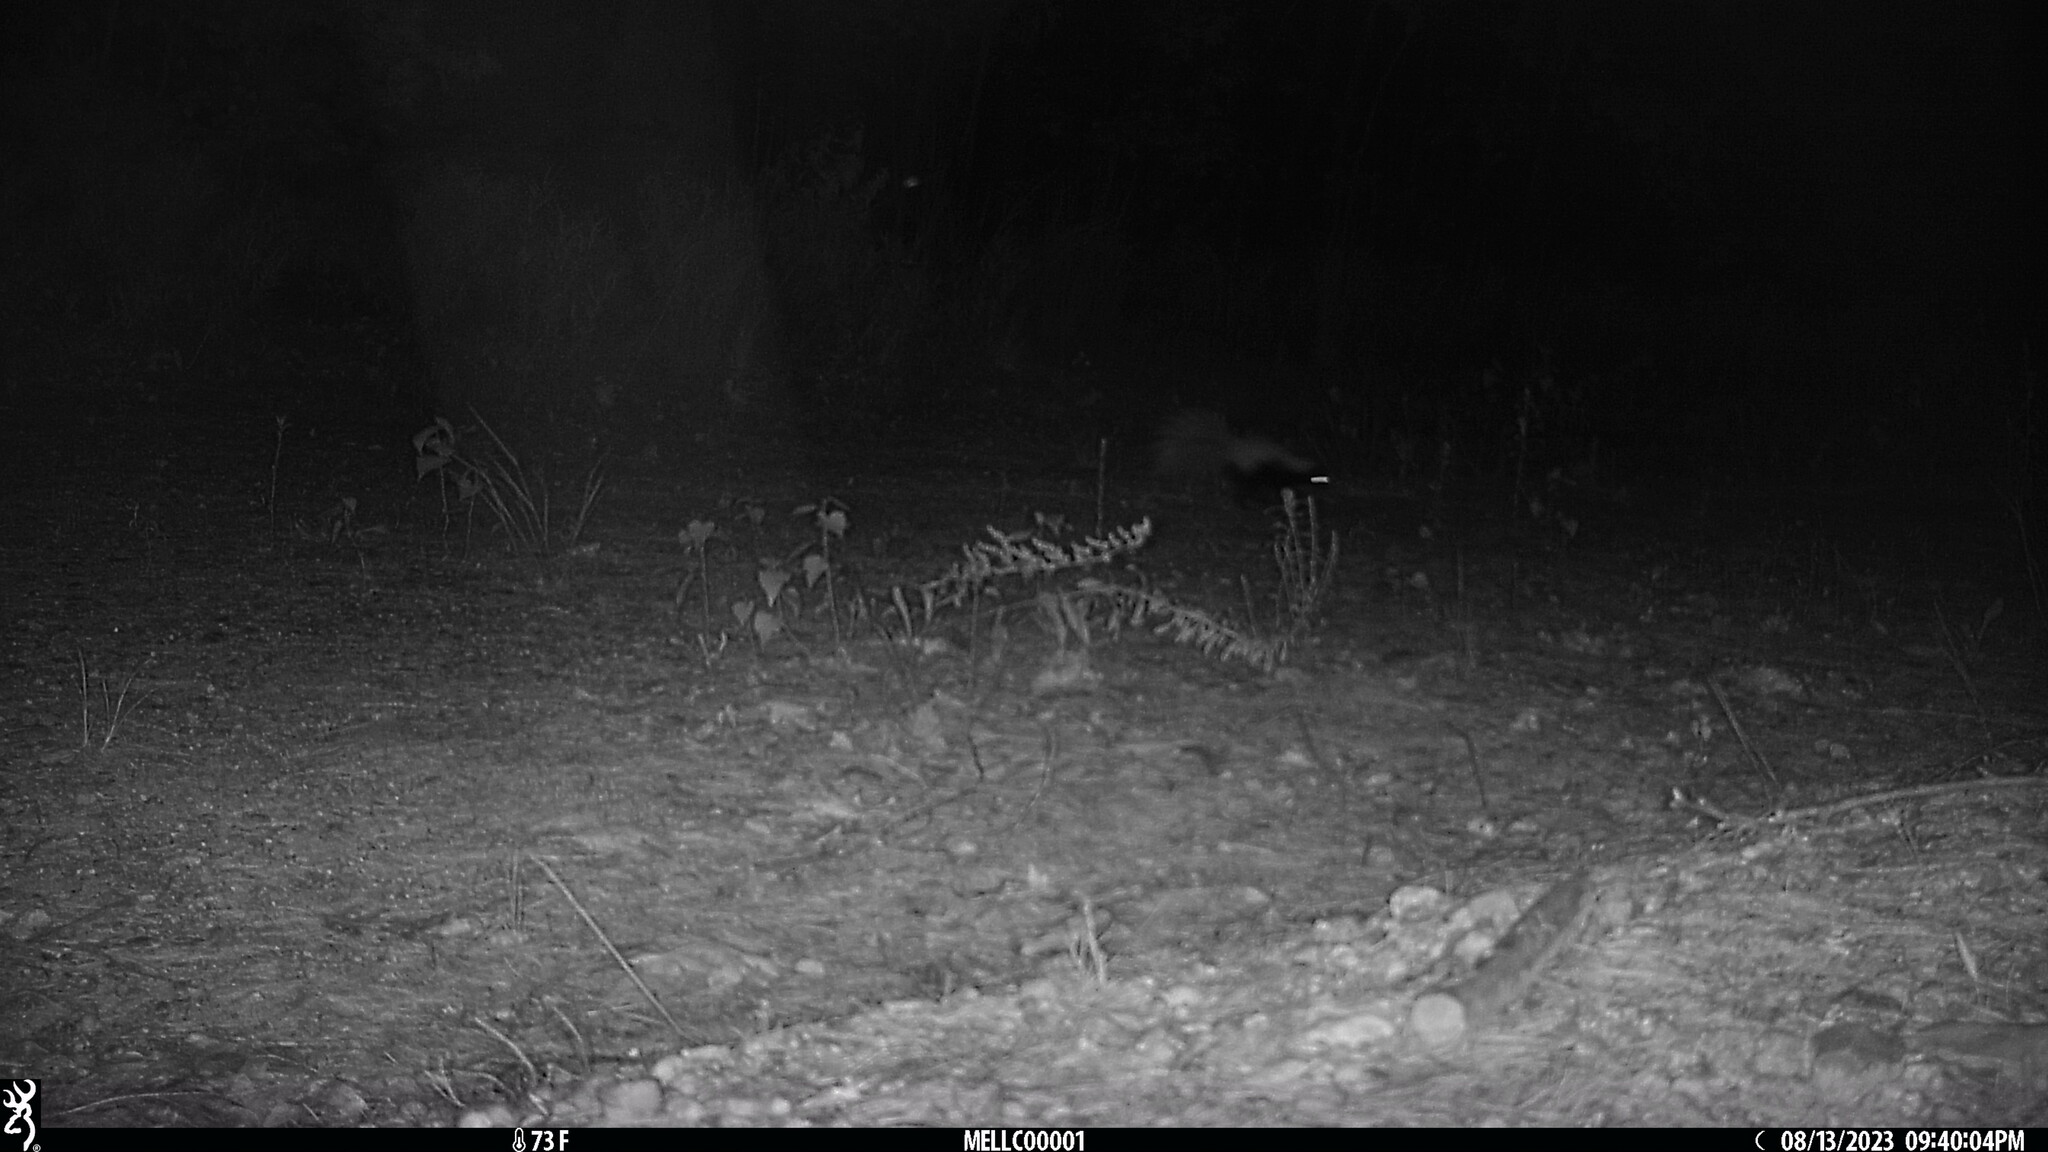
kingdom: Animalia
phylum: Chordata
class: Mammalia
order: Carnivora
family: Mephitidae
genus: Mephitis
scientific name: Mephitis mephitis
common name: Striped skunk
